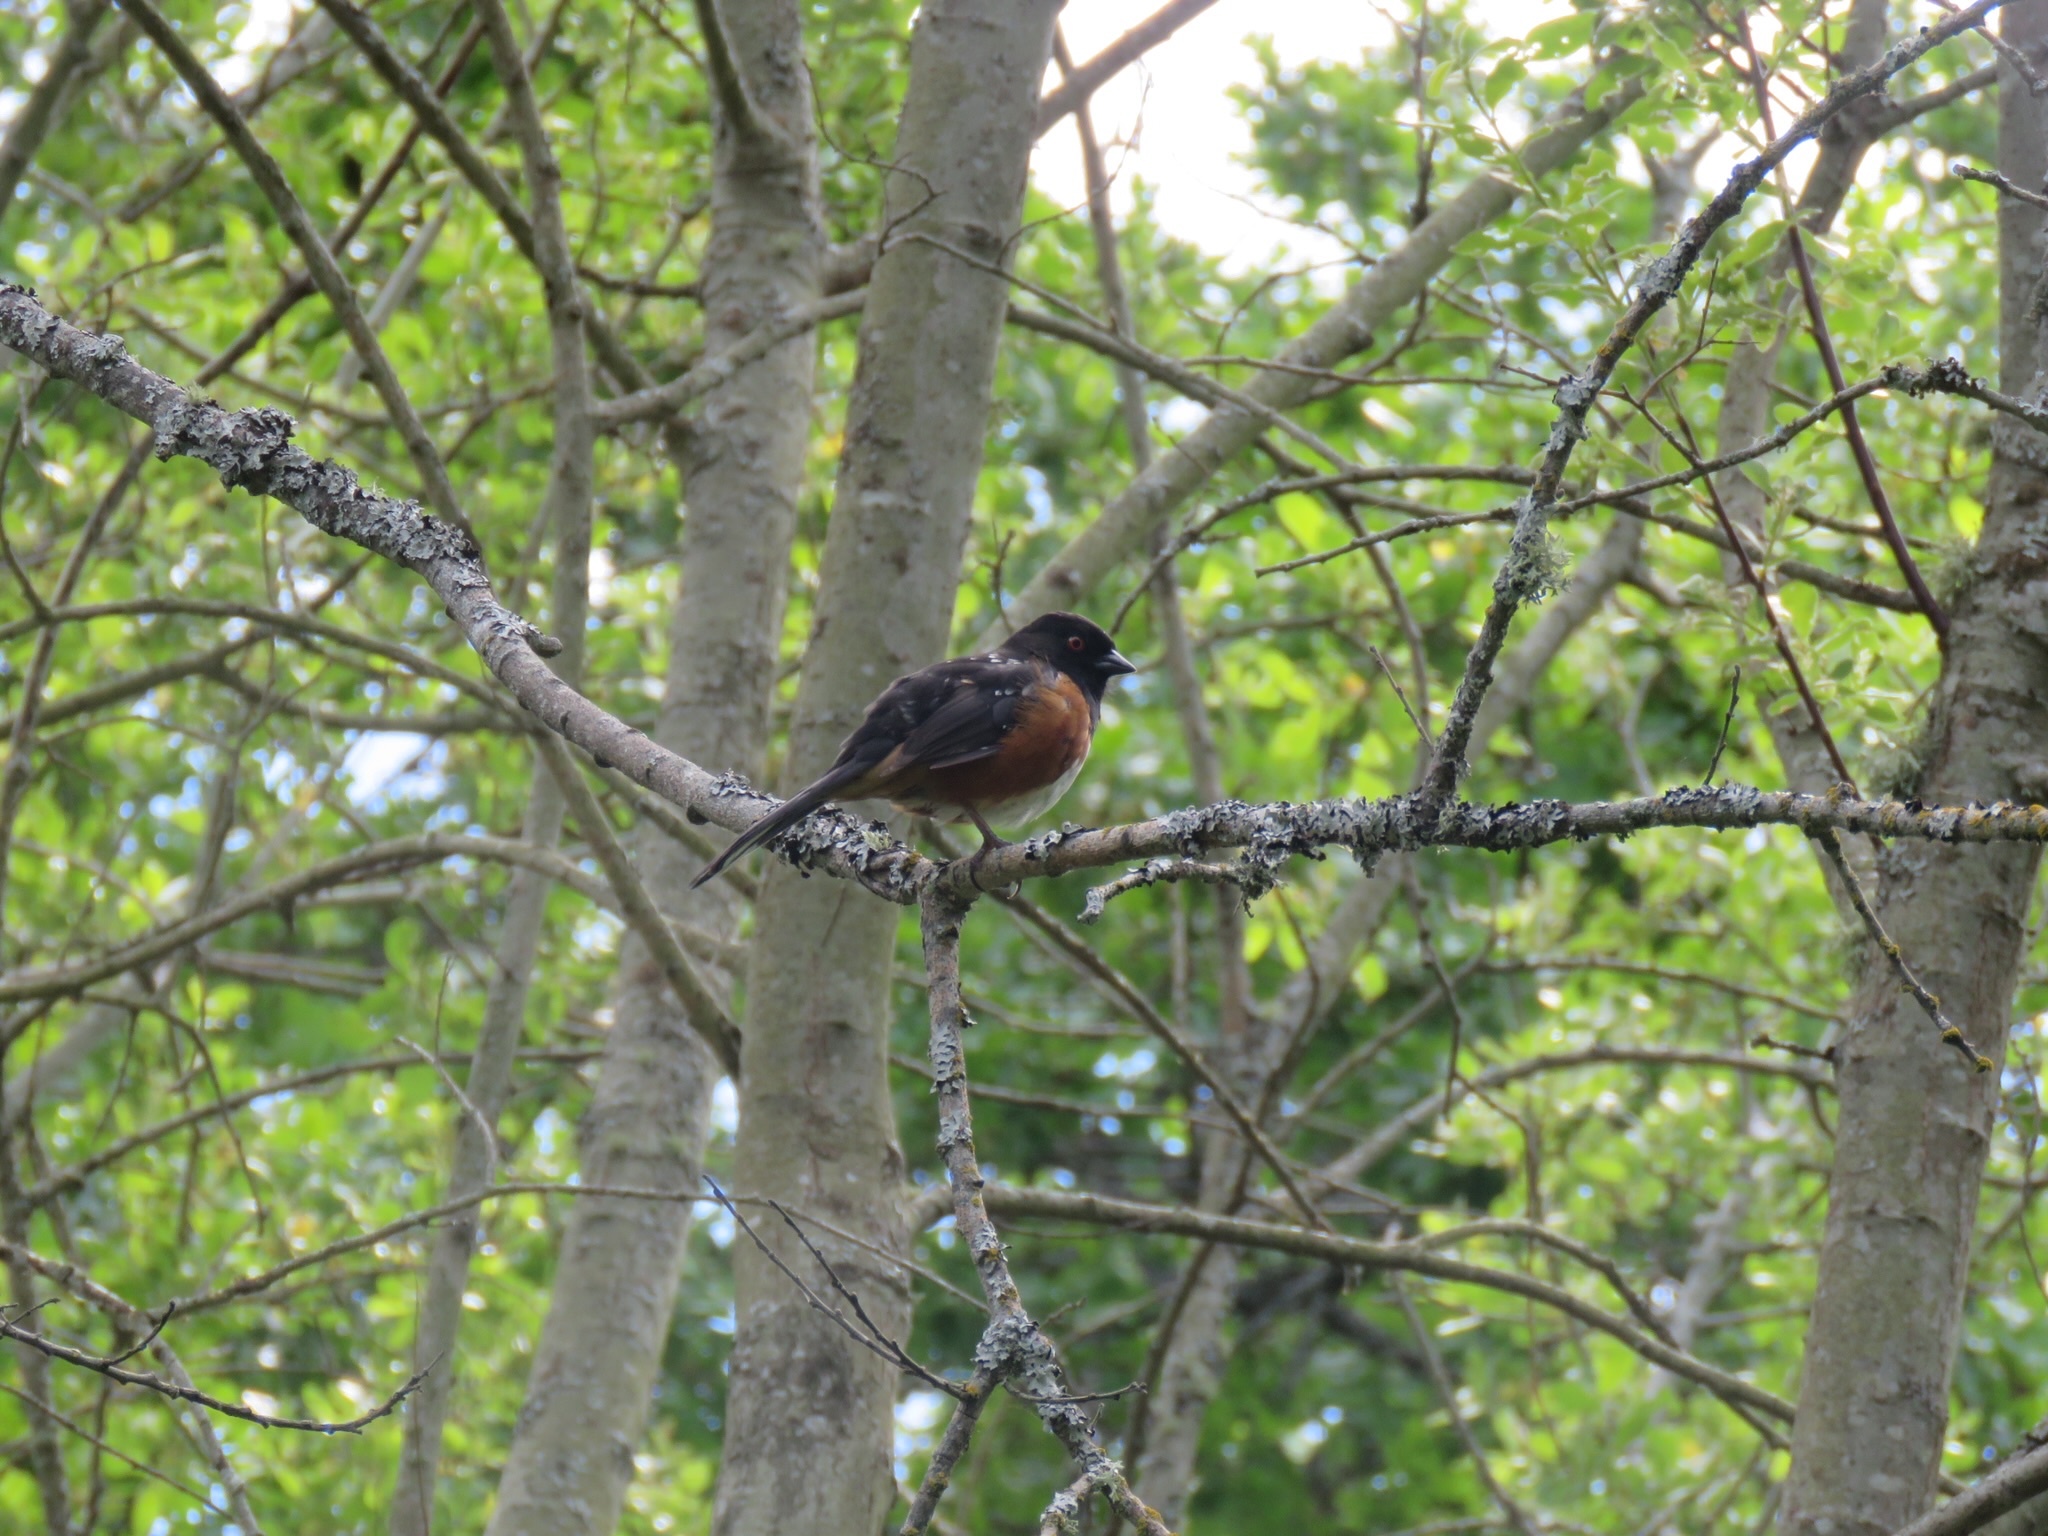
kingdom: Animalia
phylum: Chordata
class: Aves
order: Passeriformes
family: Passerellidae
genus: Pipilo
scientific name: Pipilo maculatus
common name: Spotted towhee
